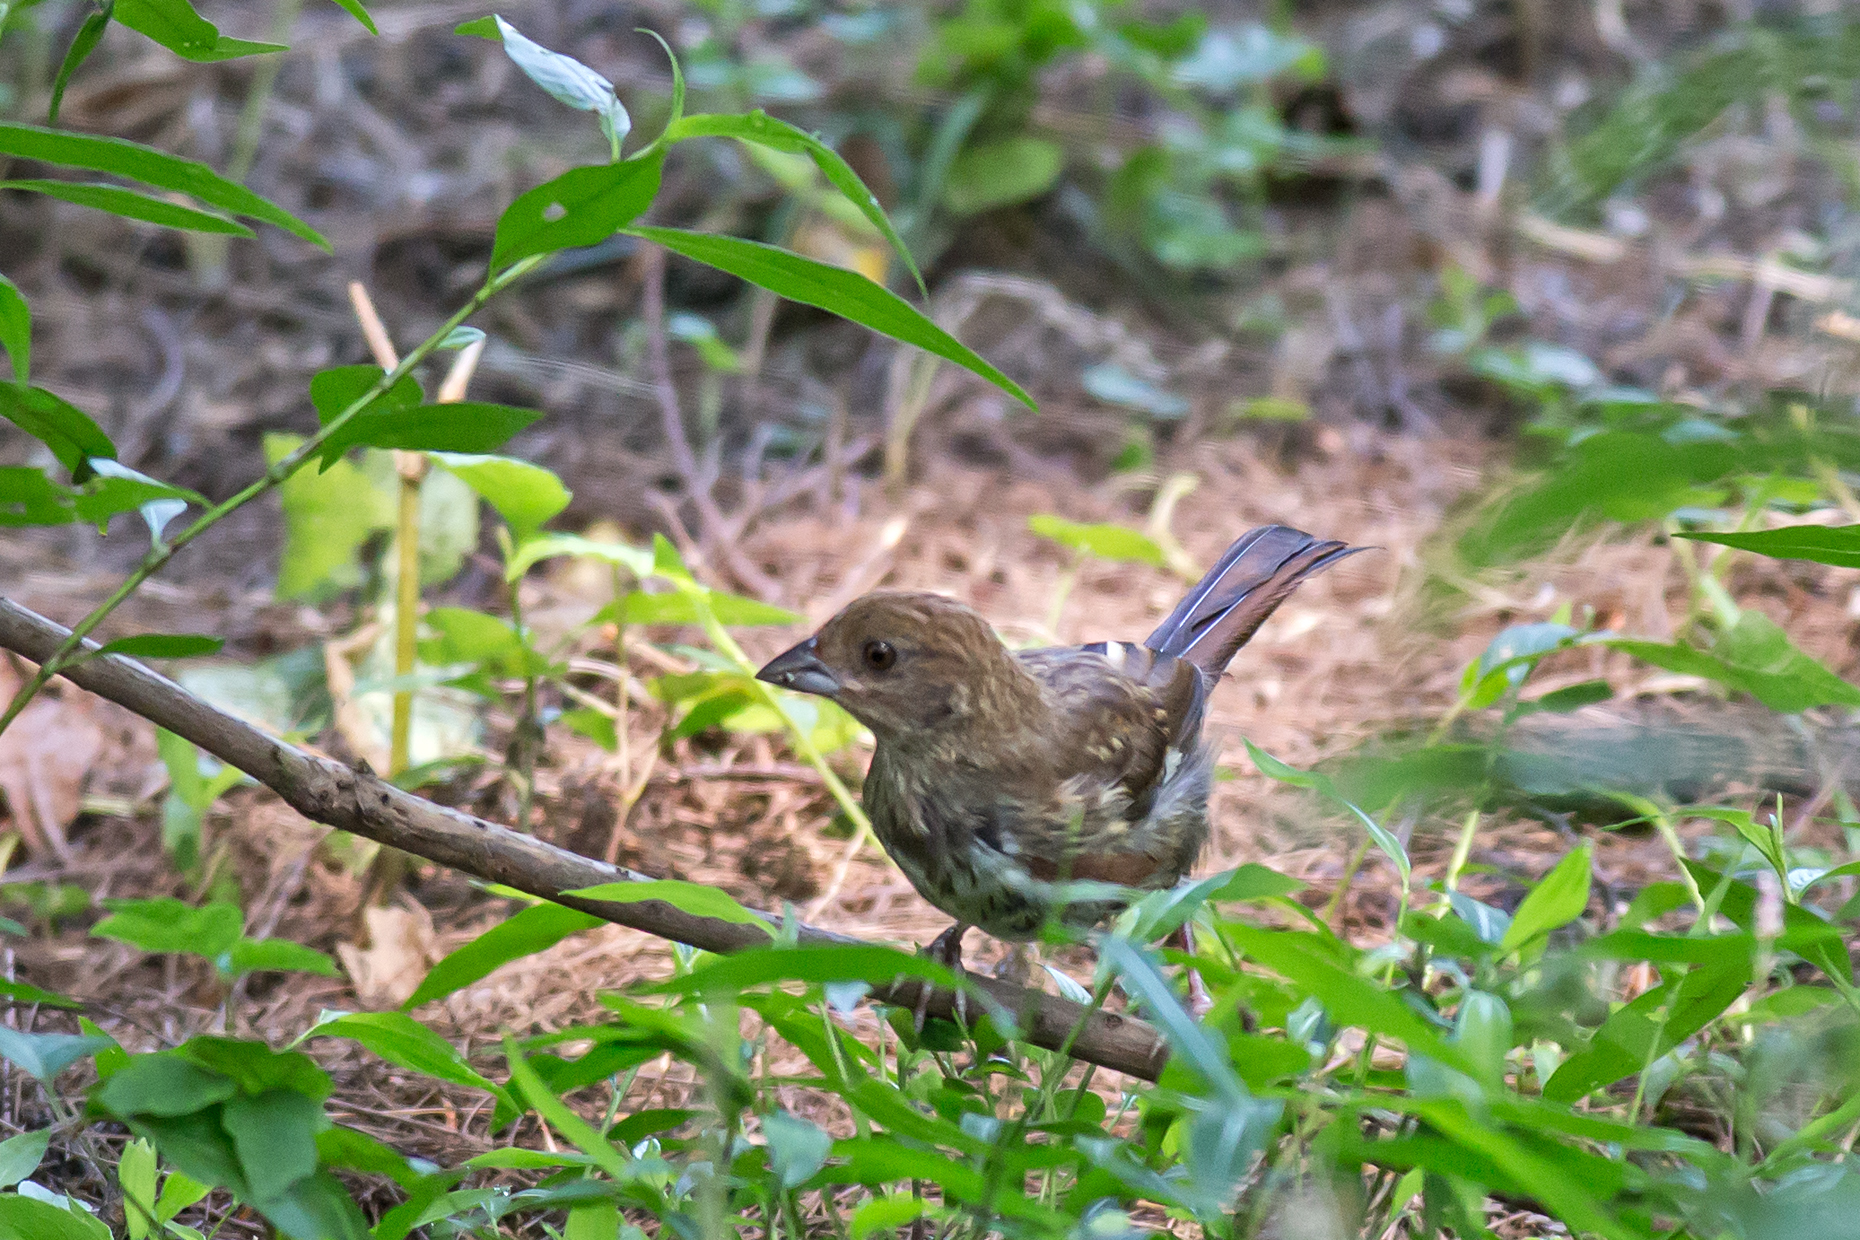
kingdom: Animalia
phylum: Chordata
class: Aves
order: Passeriformes
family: Passerellidae
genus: Pipilo
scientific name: Pipilo erythrophthalmus
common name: Eastern towhee
